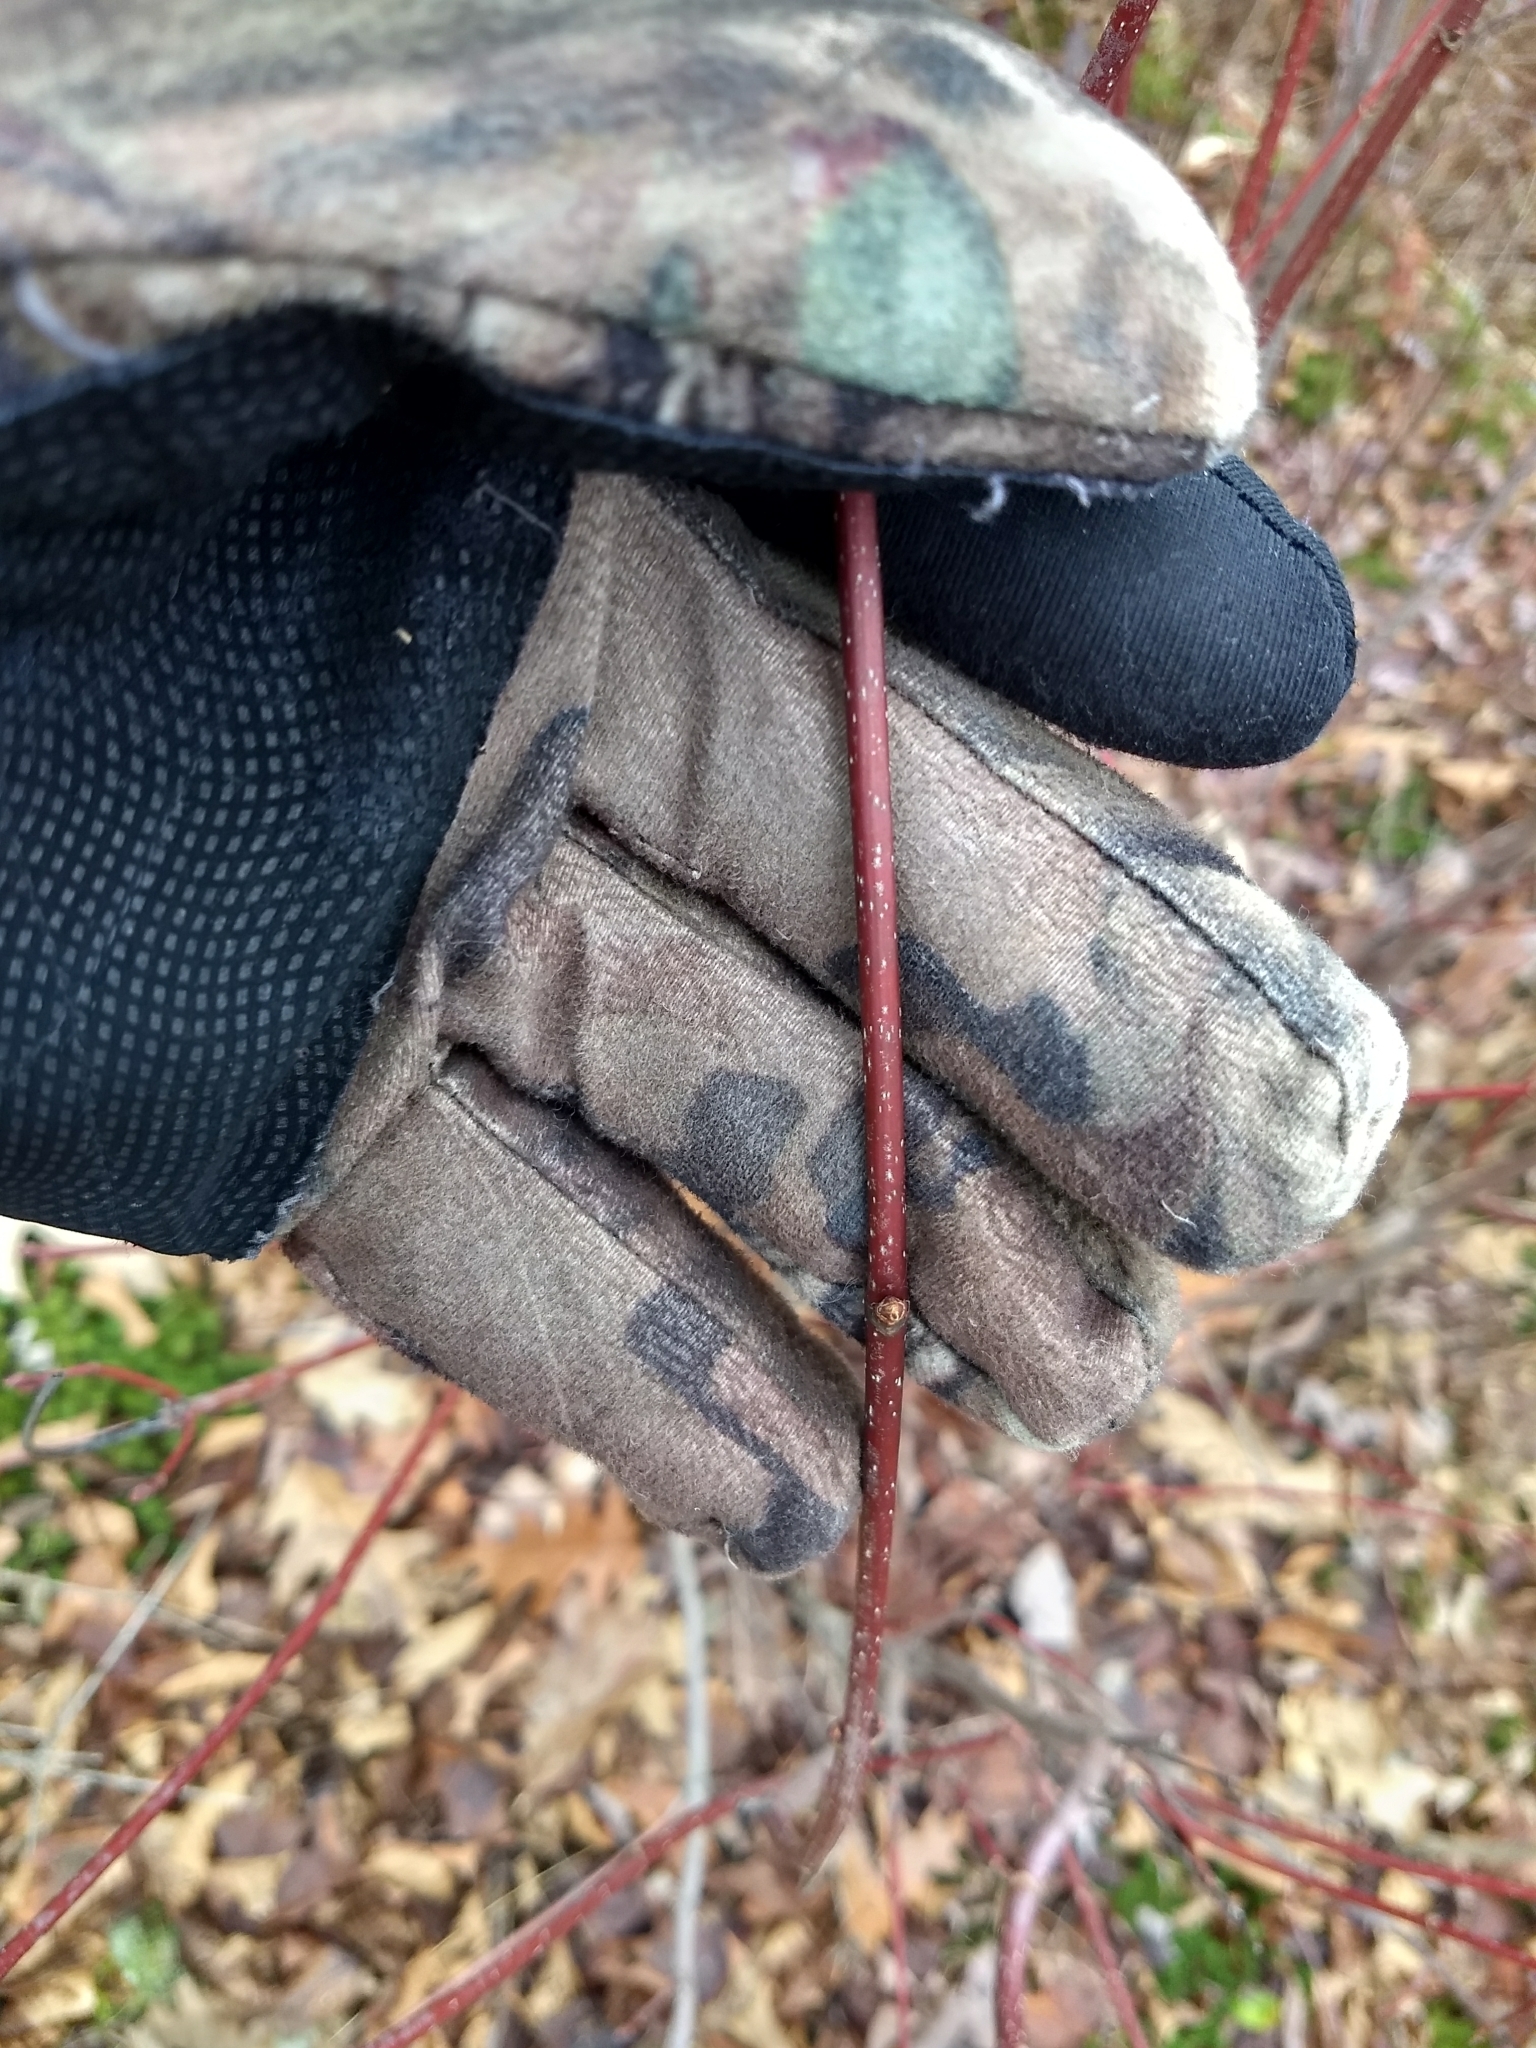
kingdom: Plantae
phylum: Tracheophyta
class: Magnoliopsida
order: Sapindales
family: Sapindaceae
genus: Acer
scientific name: Acer rubrum
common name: Red maple
